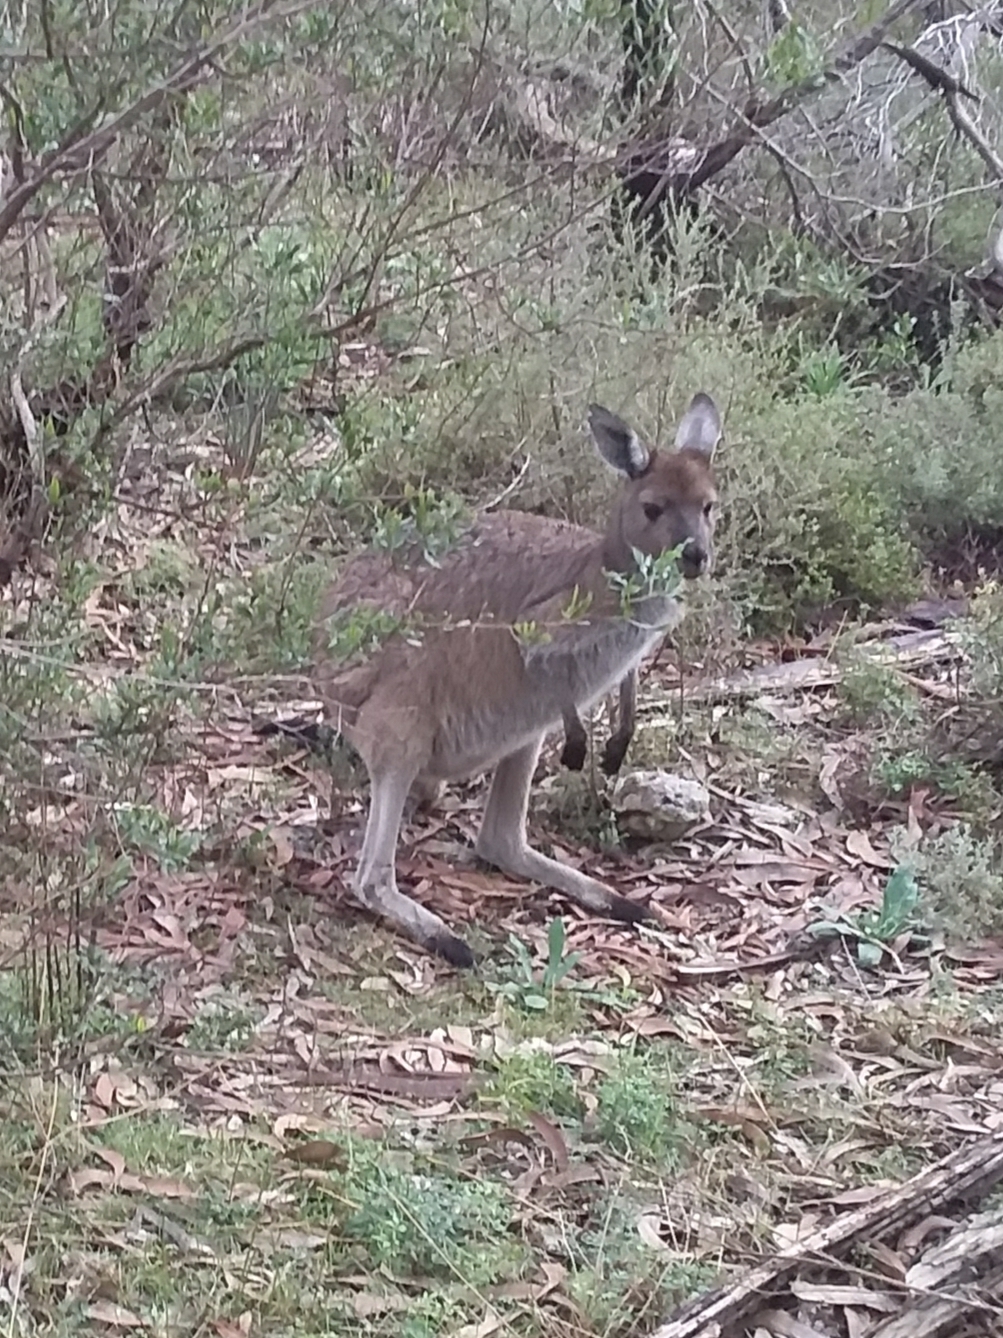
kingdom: Animalia
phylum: Chordata
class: Mammalia
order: Diprotodontia
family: Macropodidae
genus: Macropus
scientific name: Macropus fuliginosus
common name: Western grey kangaroo
